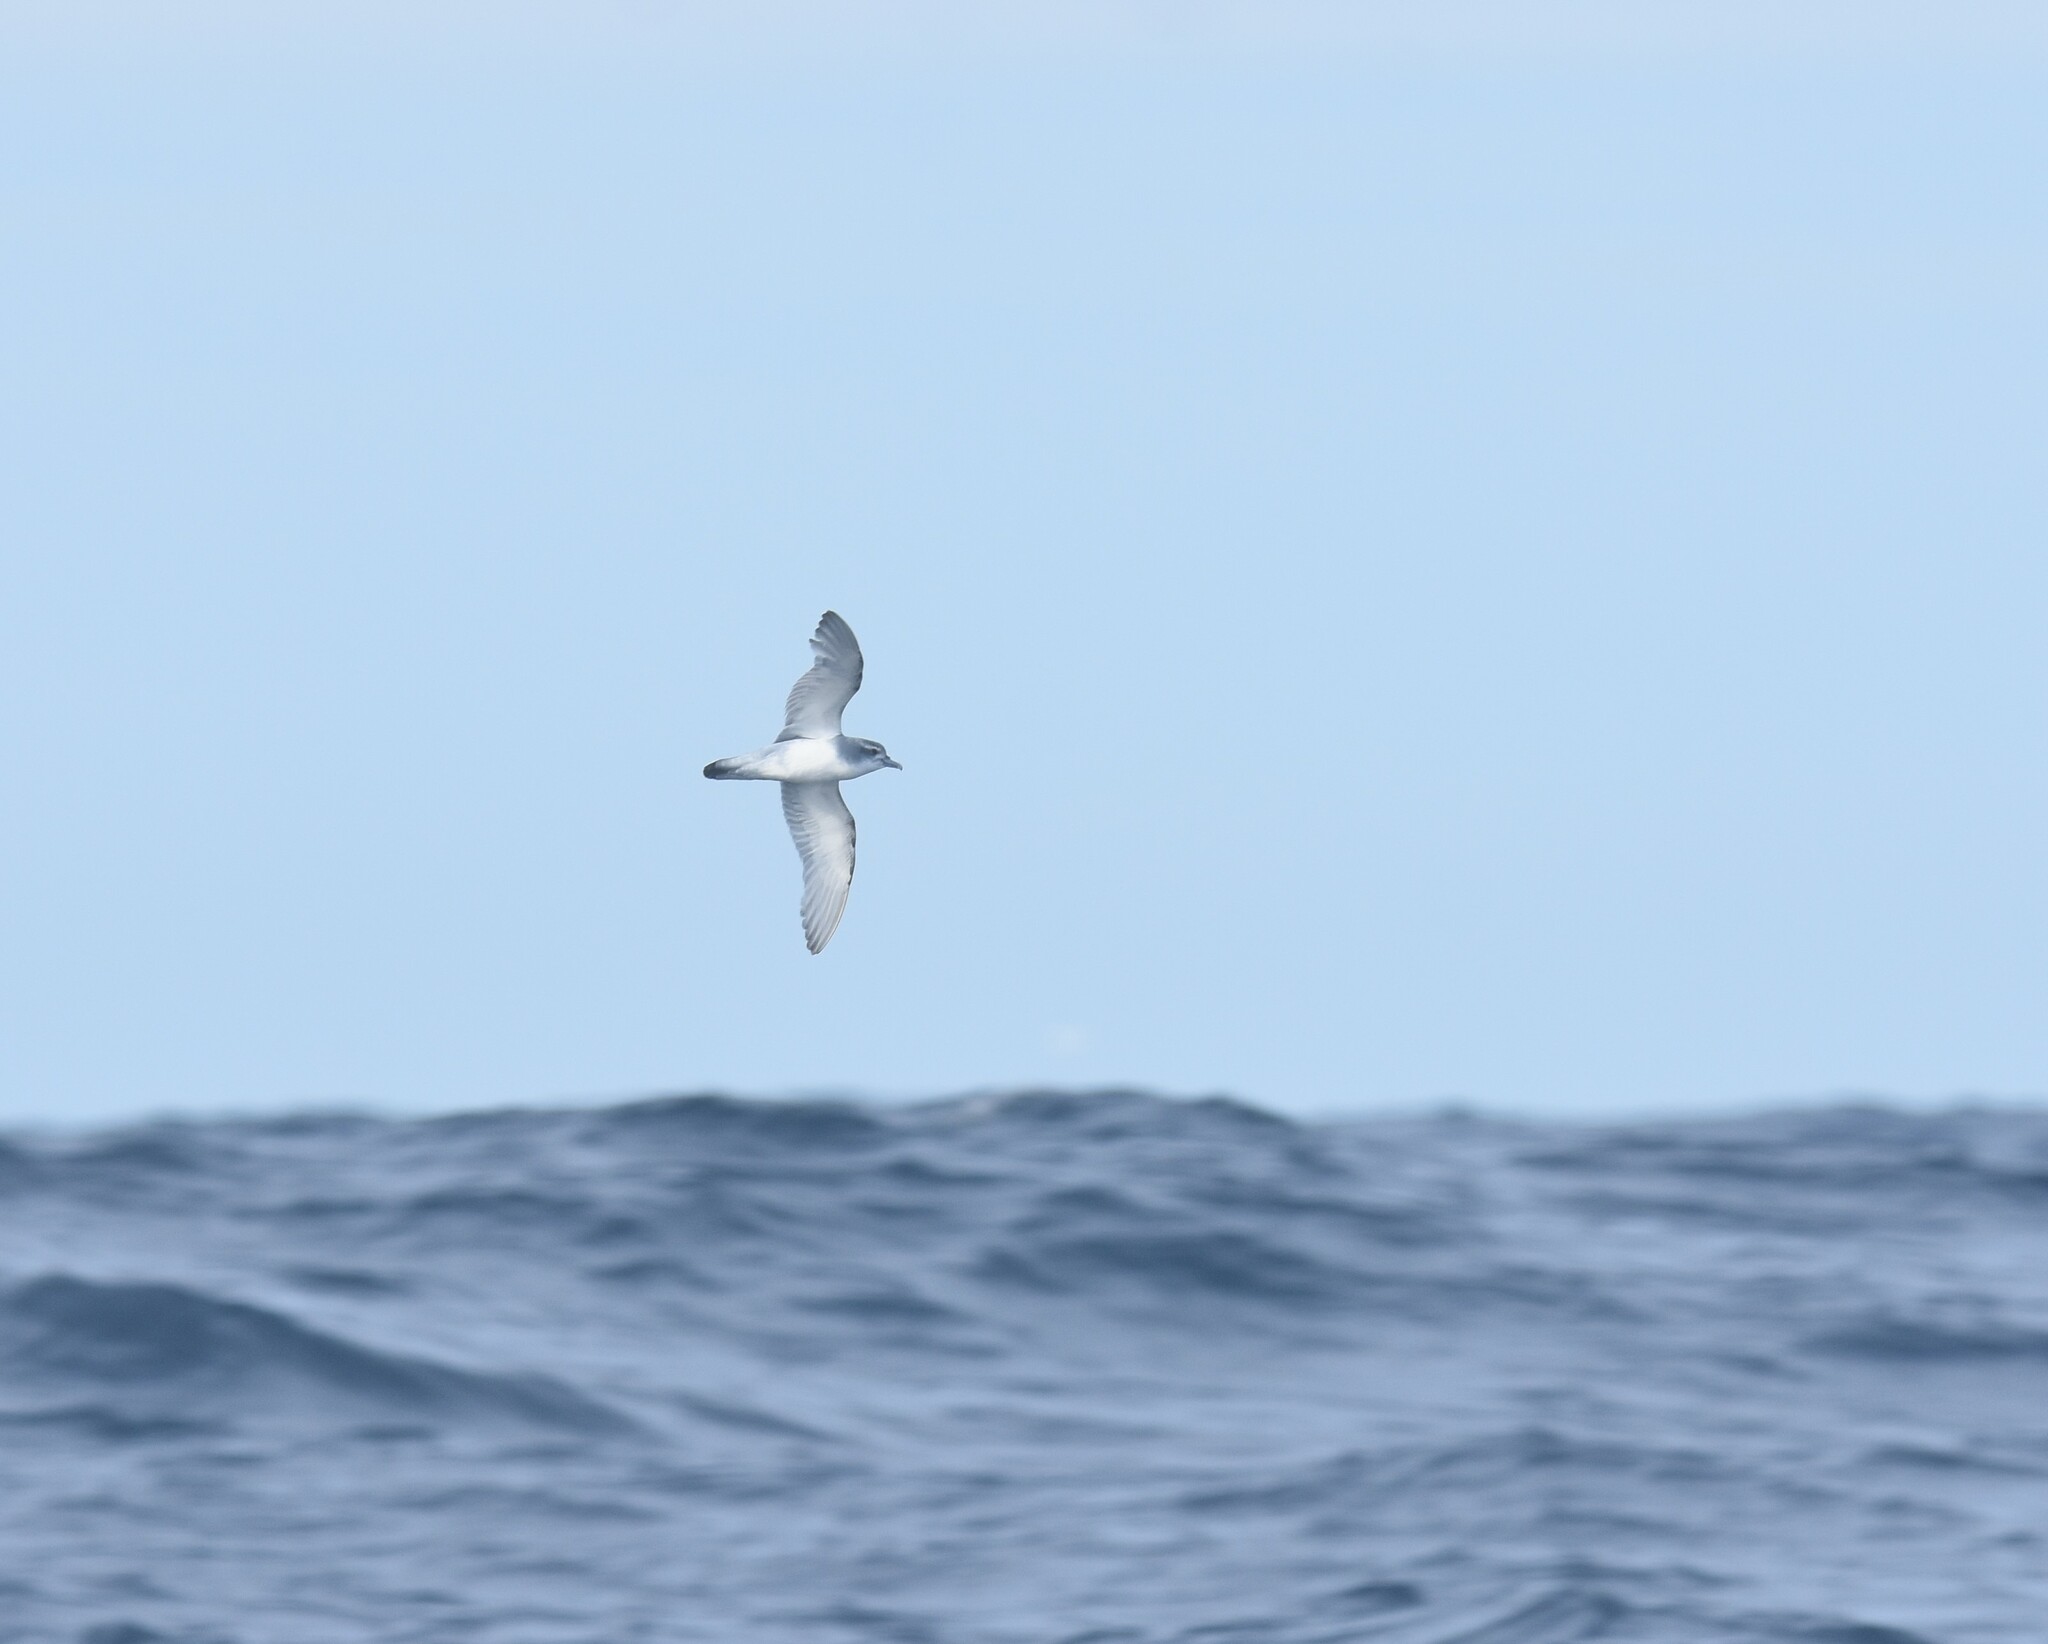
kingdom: Animalia
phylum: Chordata
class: Aves
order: Procellariiformes
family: Procellariidae
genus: Pachyptila
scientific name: Pachyptila desolata
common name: Antarctic prion
